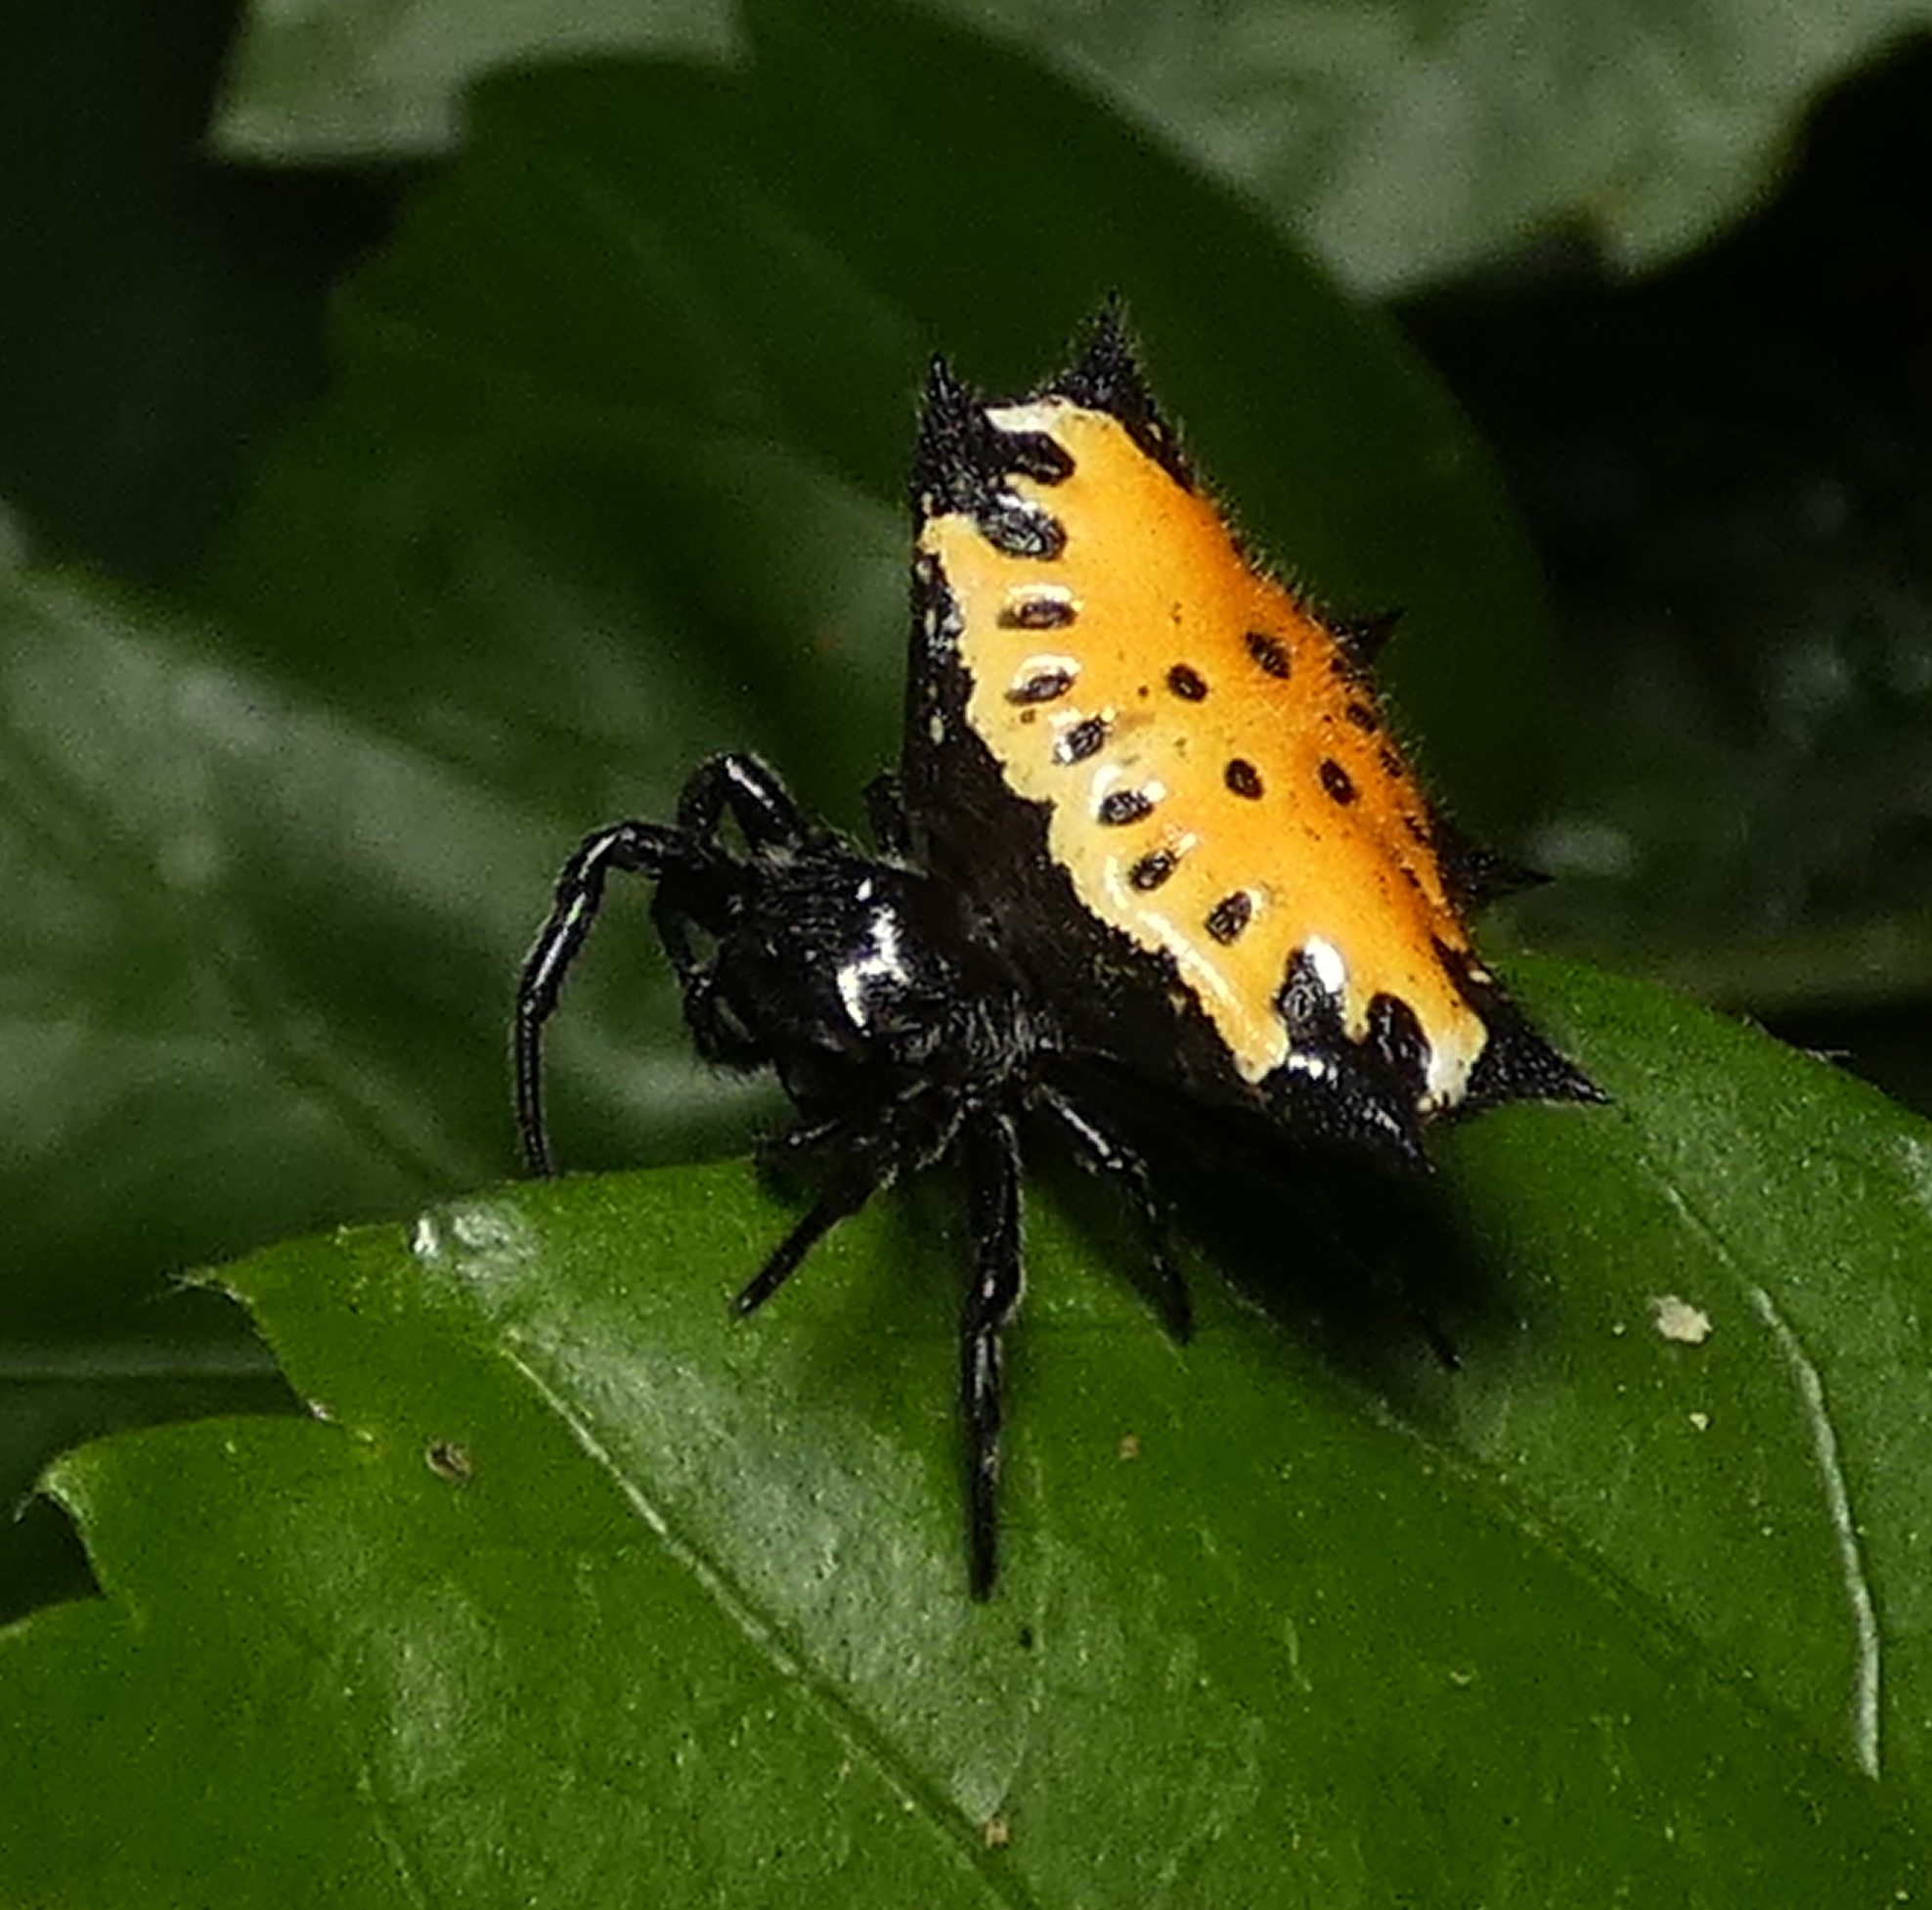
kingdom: Animalia
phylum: Arthropoda
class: Arachnida
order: Araneae
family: Araneidae
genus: Gasteracantha
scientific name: Gasteracantha cancriformis
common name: Orb weavers
